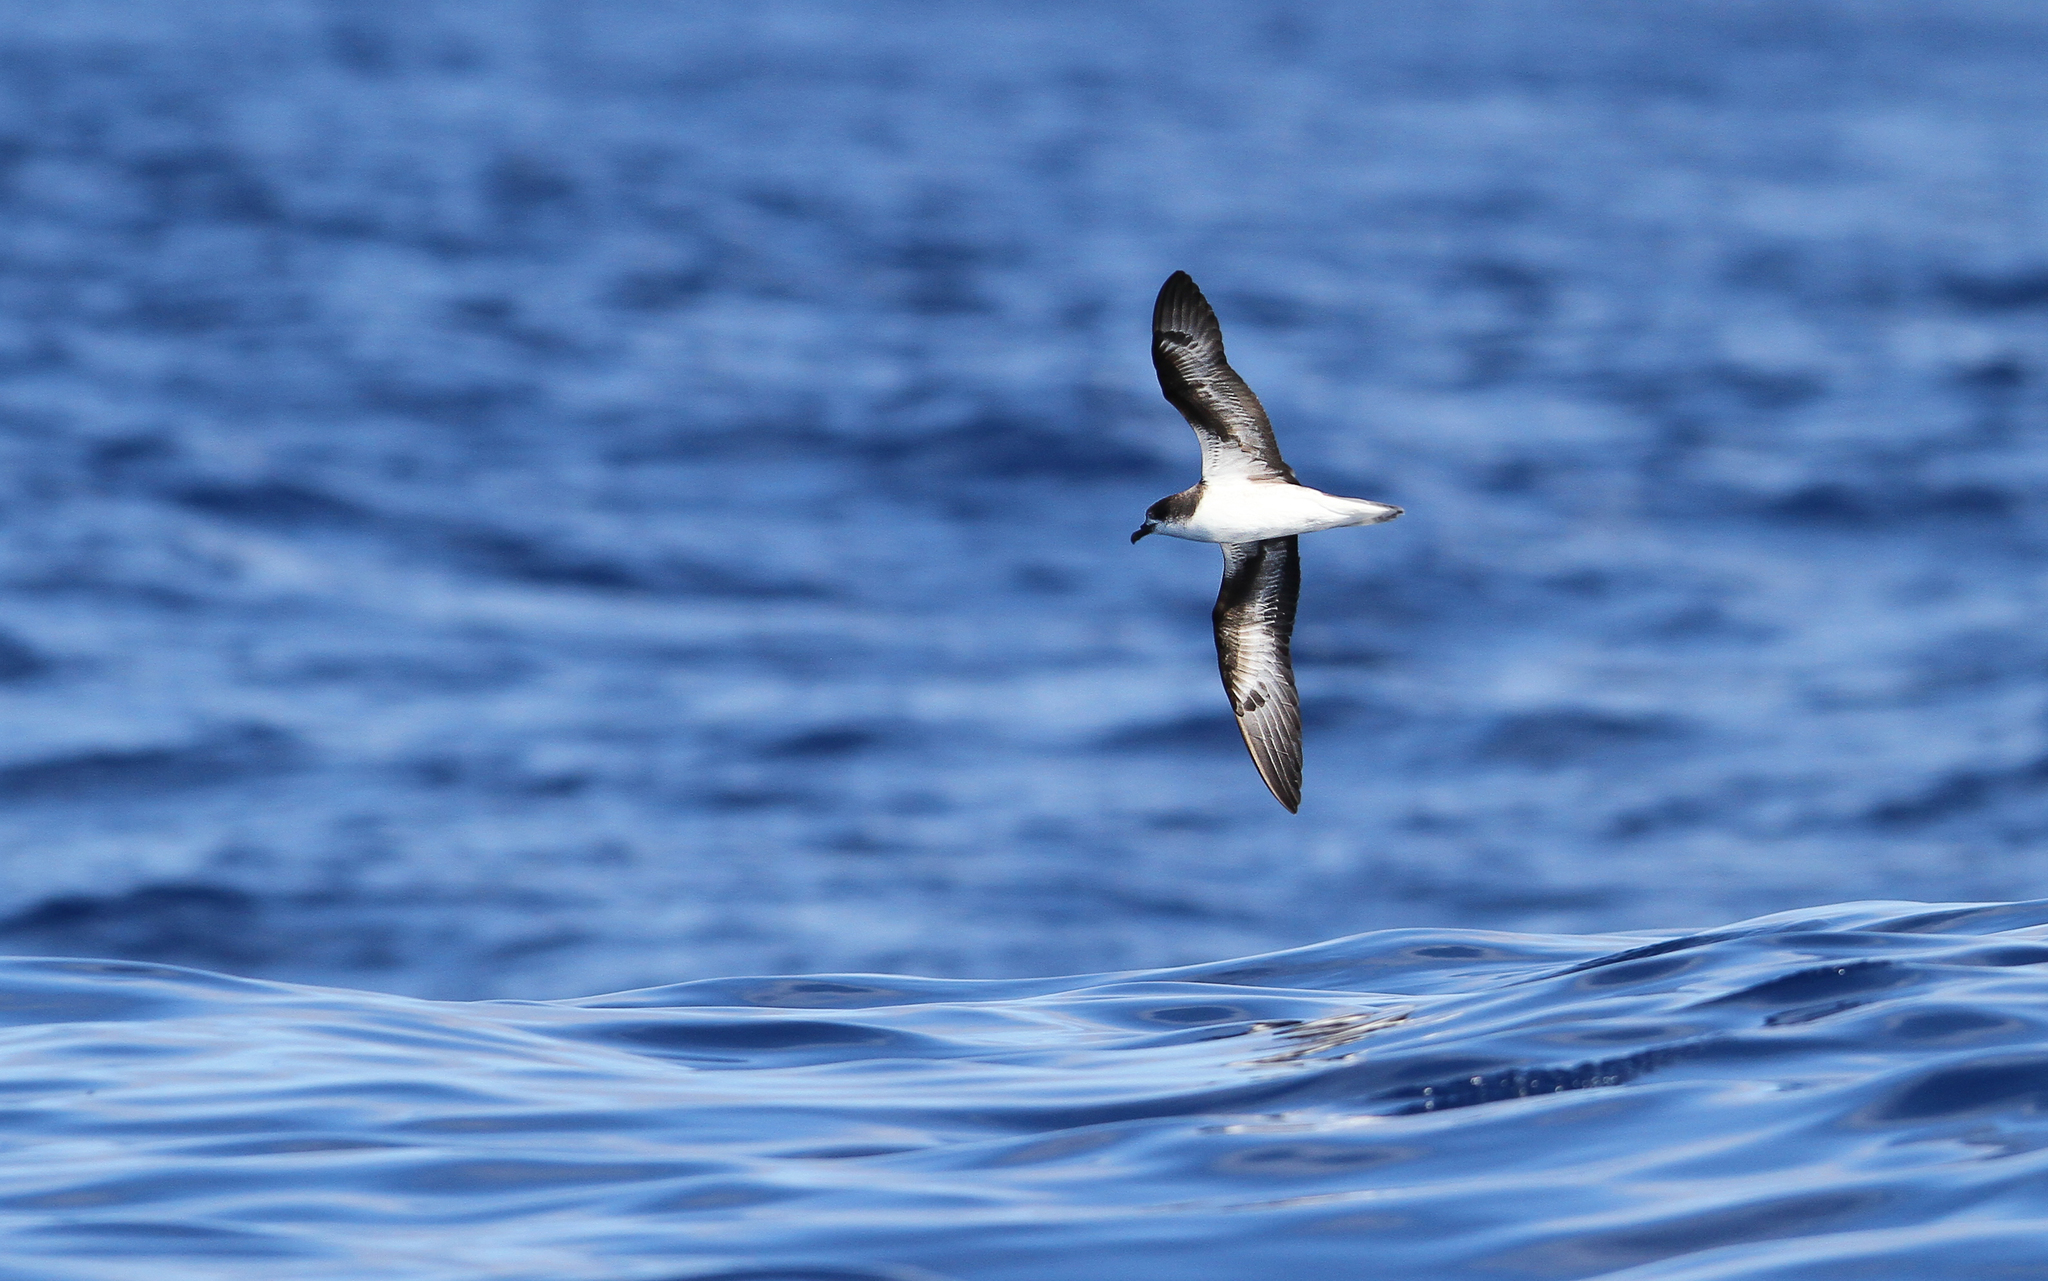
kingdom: Animalia
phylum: Chordata
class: Aves
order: Procellariiformes
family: Procellariidae
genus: Pterodroma
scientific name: Pterodroma madeira
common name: Zino's petrel
